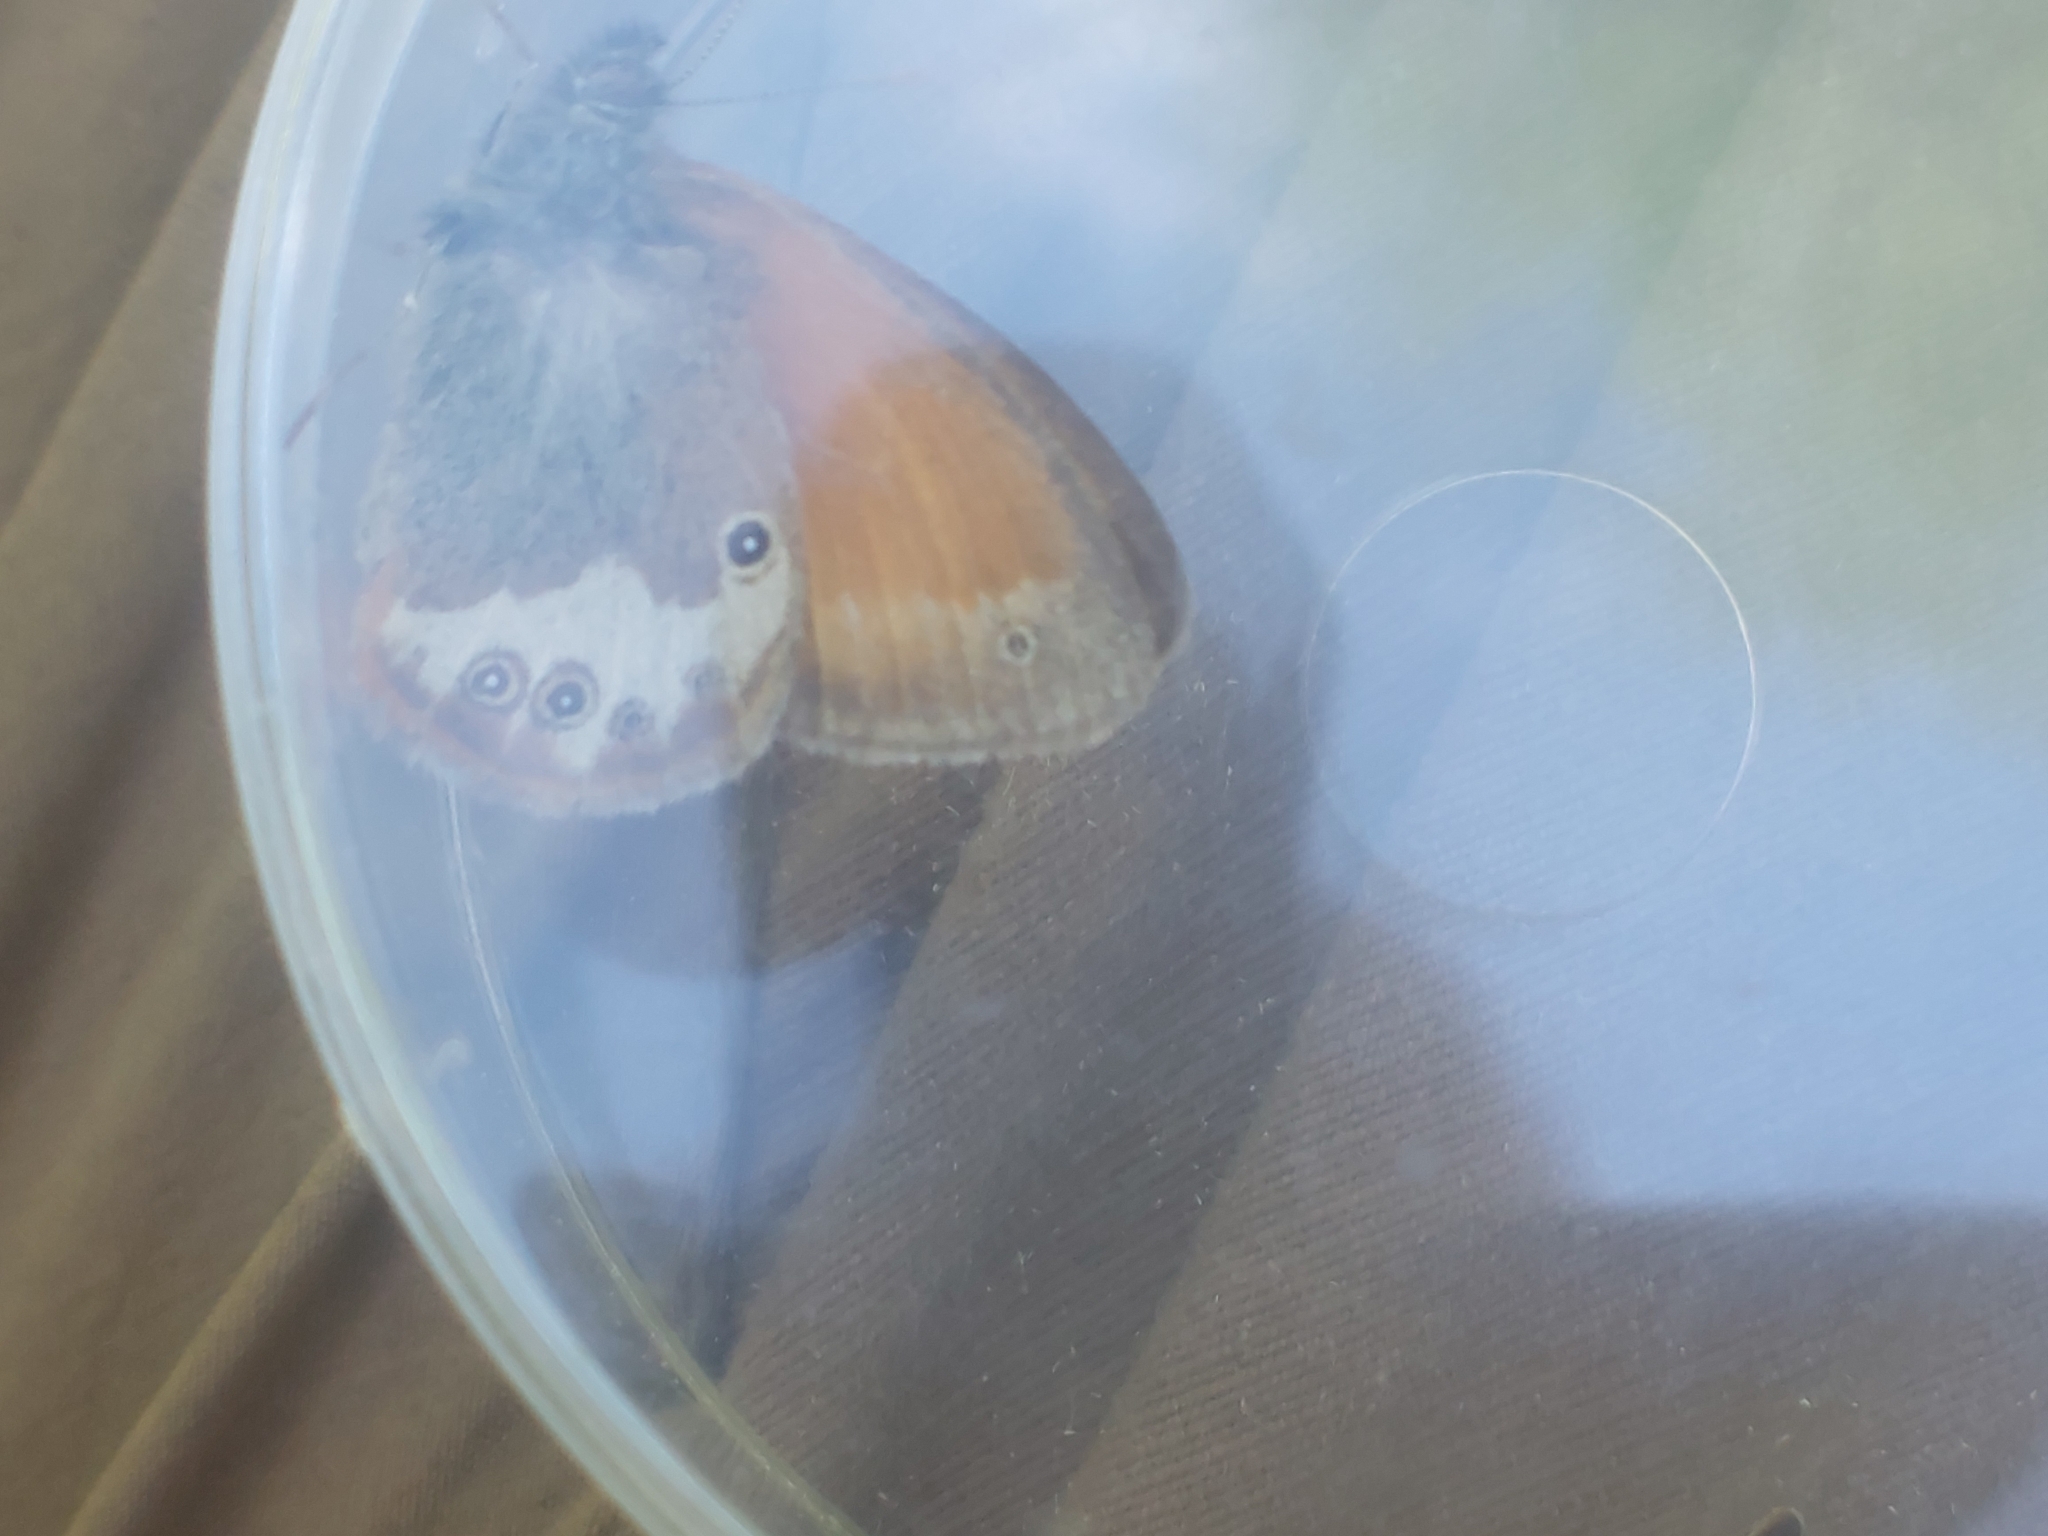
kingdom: Animalia
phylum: Arthropoda
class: Insecta
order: Lepidoptera
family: Nymphalidae
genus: Coenonympha
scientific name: Coenonympha arcania
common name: Pearly heath
